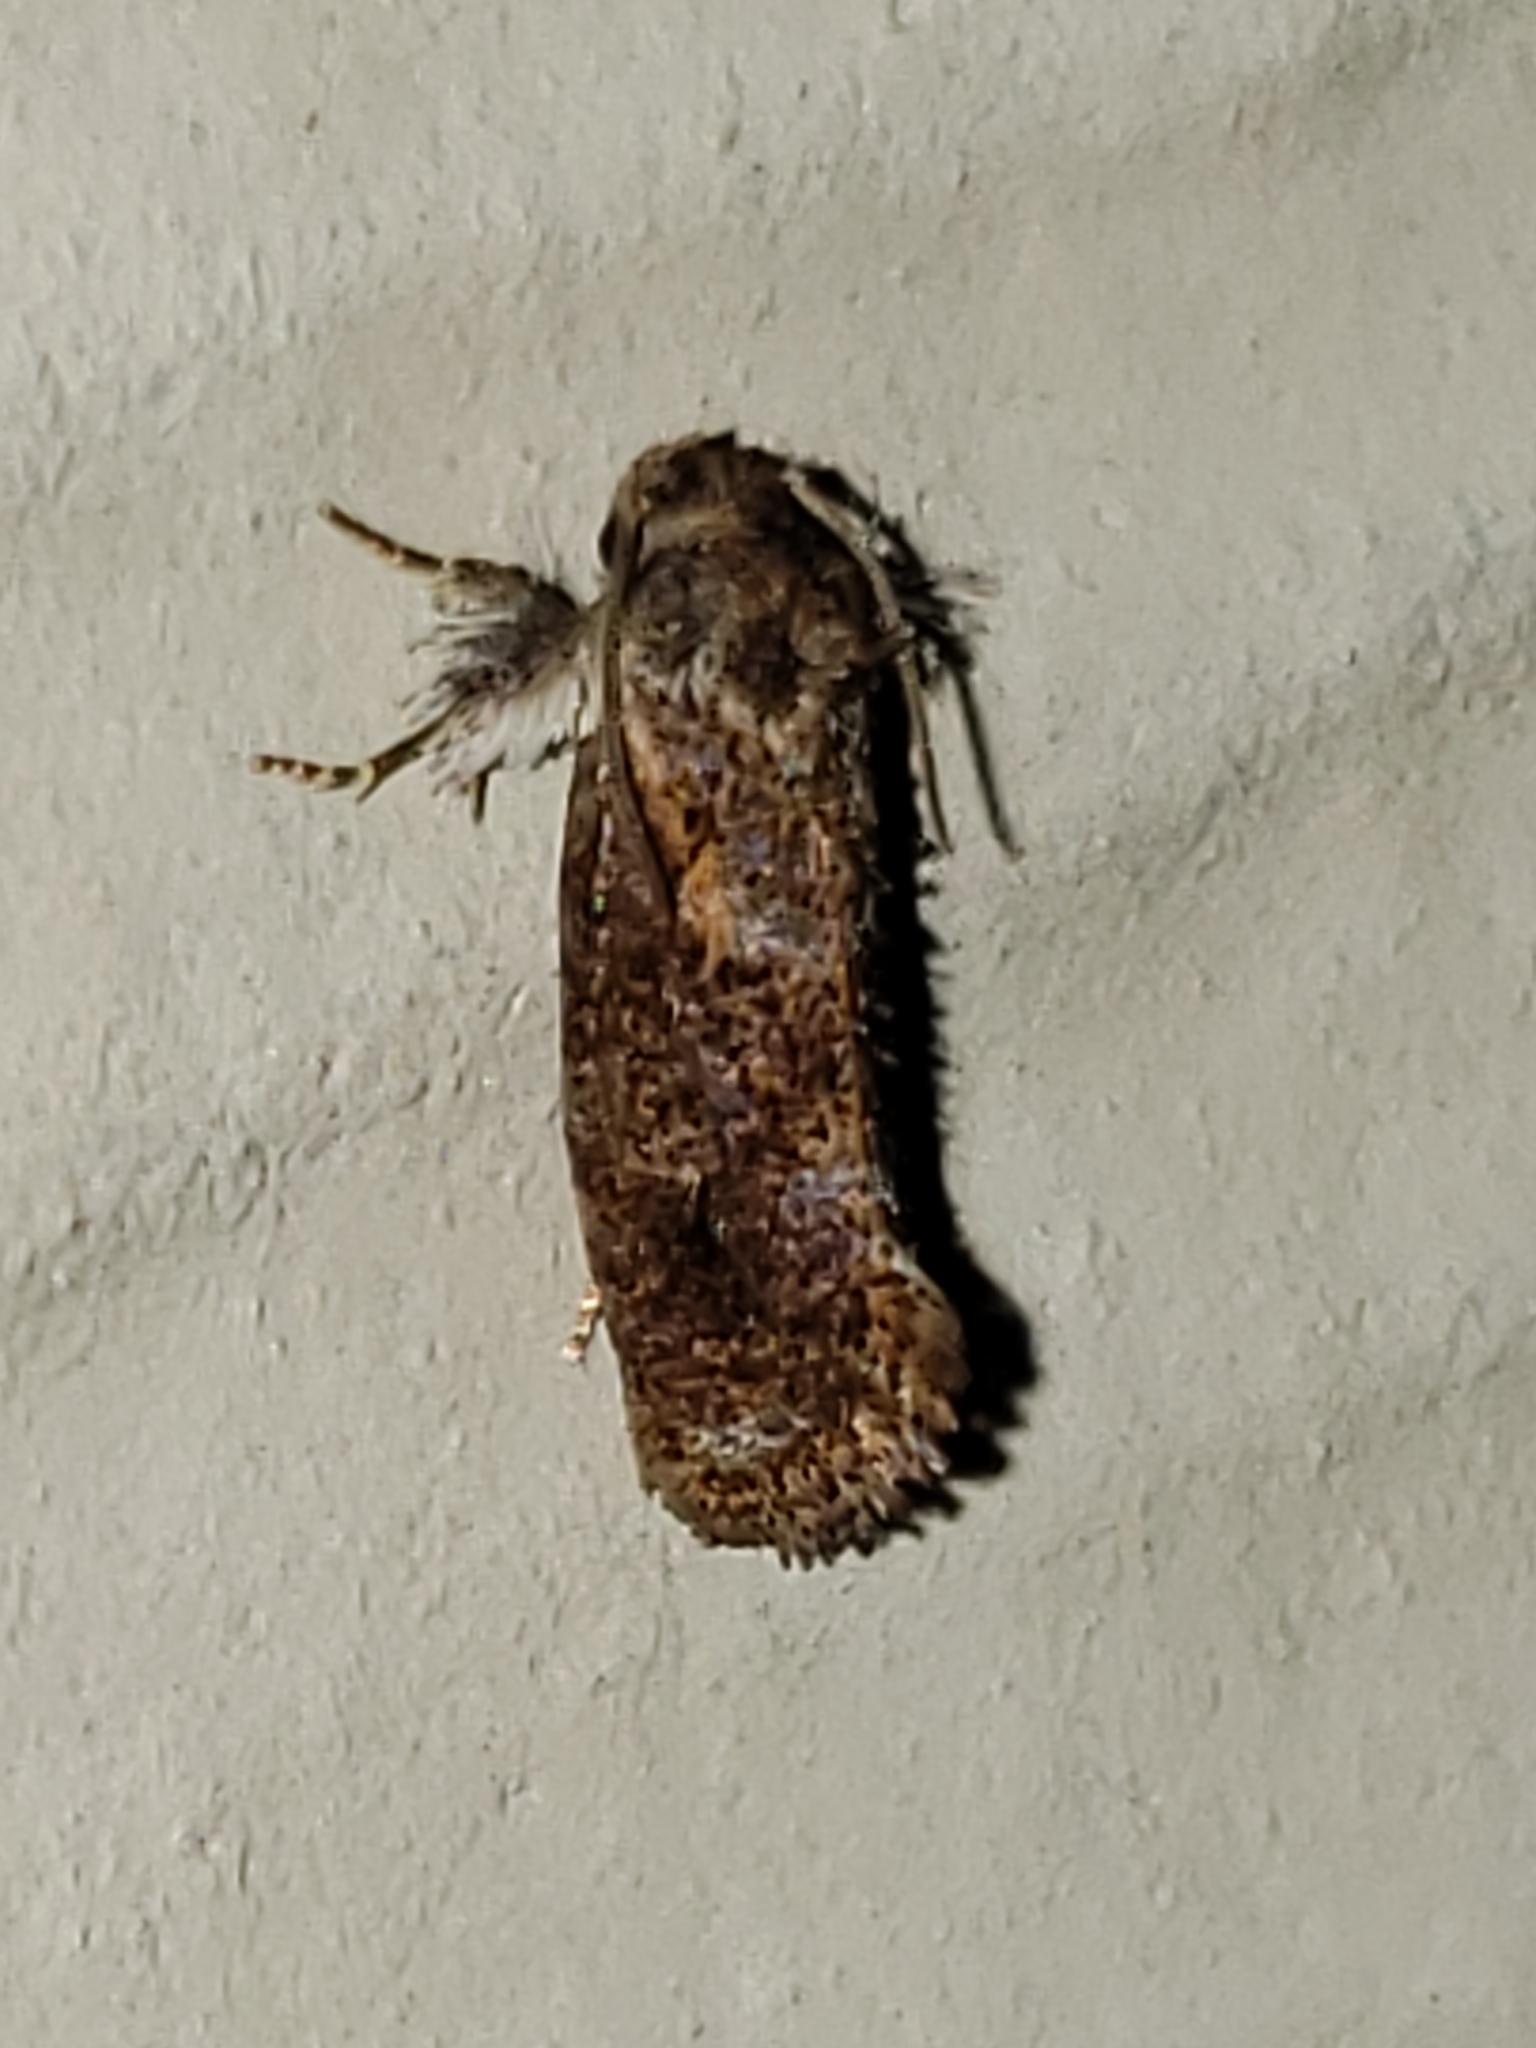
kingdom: Animalia
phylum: Arthropoda
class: Insecta
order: Lepidoptera
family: Tineidae
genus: Acrolophus
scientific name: Acrolophus panamae
